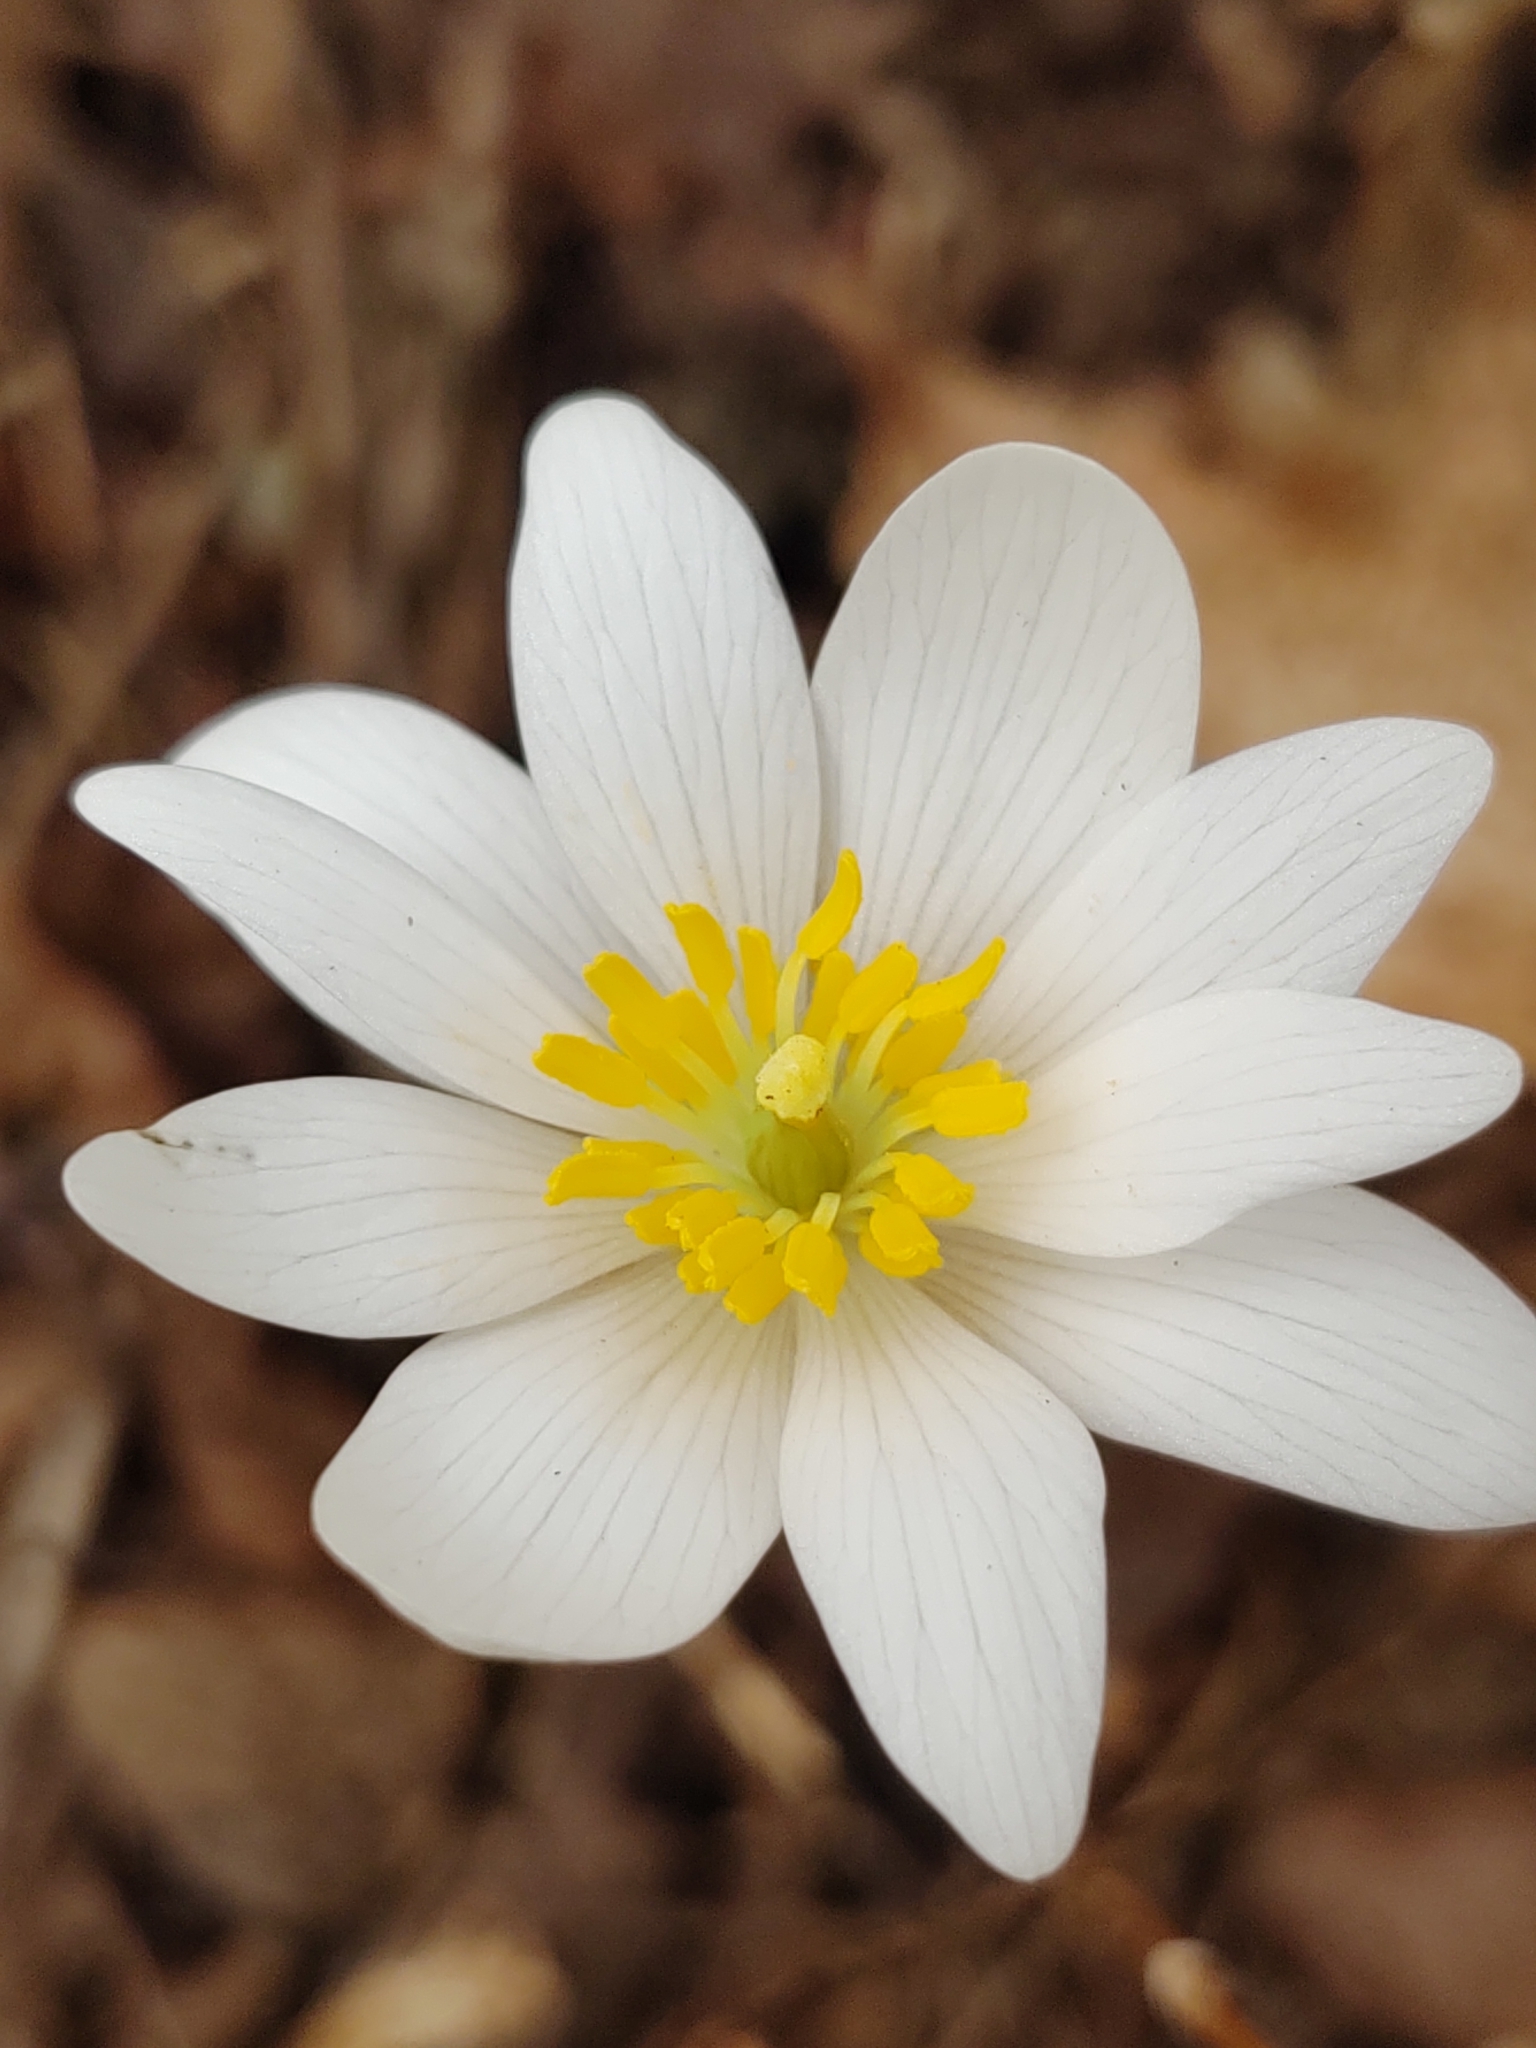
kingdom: Plantae
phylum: Tracheophyta
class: Magnoliopsida
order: Ranunculales
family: Papaveraceae
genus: Sanguinaria
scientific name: Sanguinaria canadensis
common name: Bloodroot
